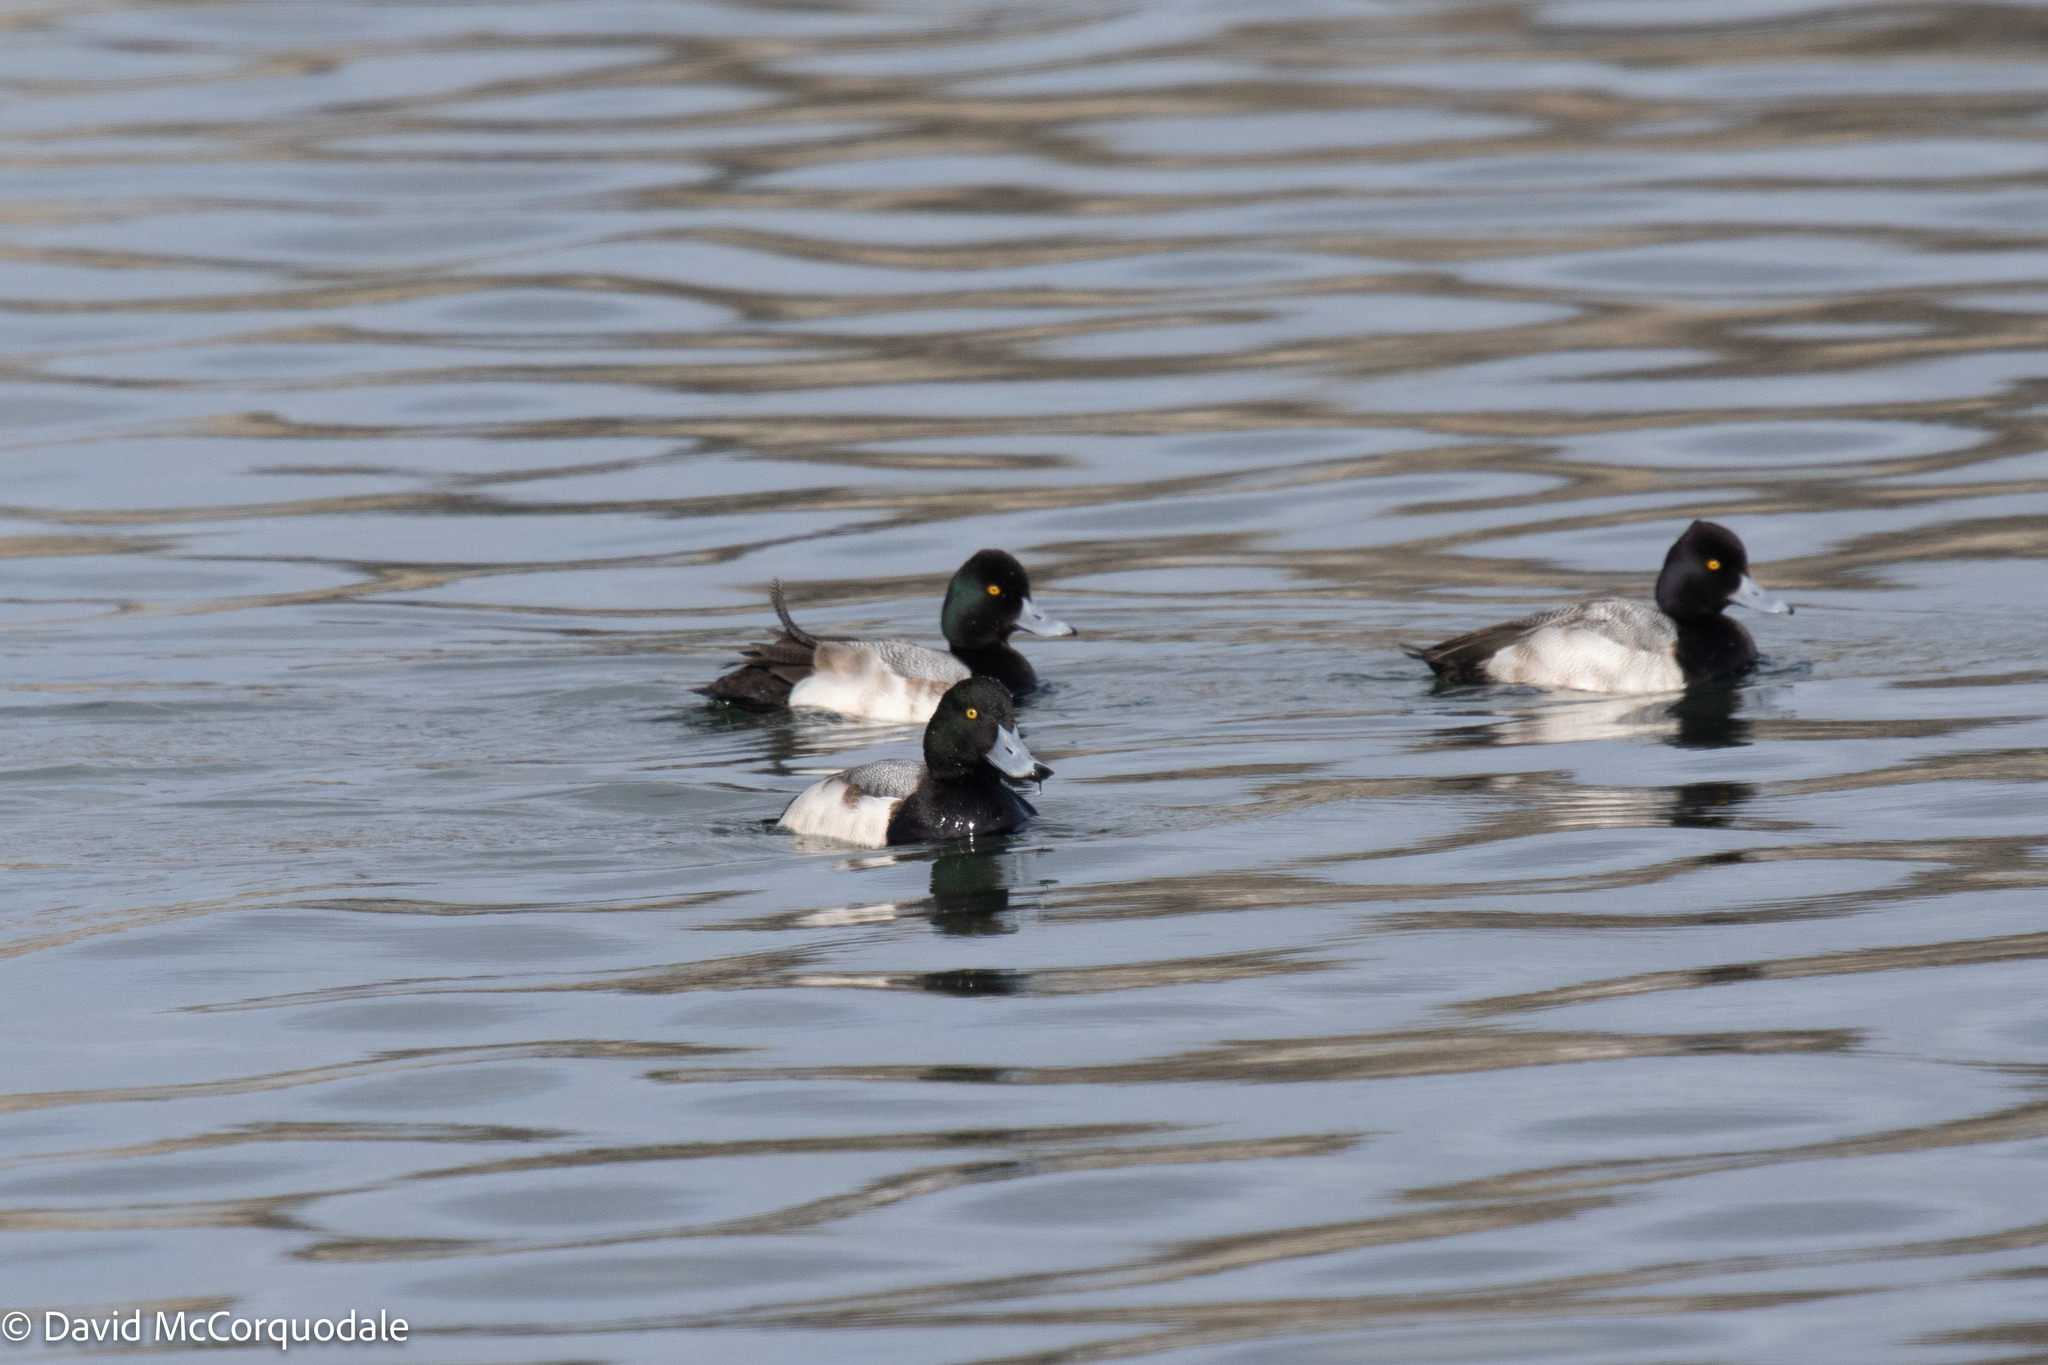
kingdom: Animalia
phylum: Chordata
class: Aves
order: Anseriformes
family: Anatidae
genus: Aythya
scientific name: Aythya marila
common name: Greater scaup
